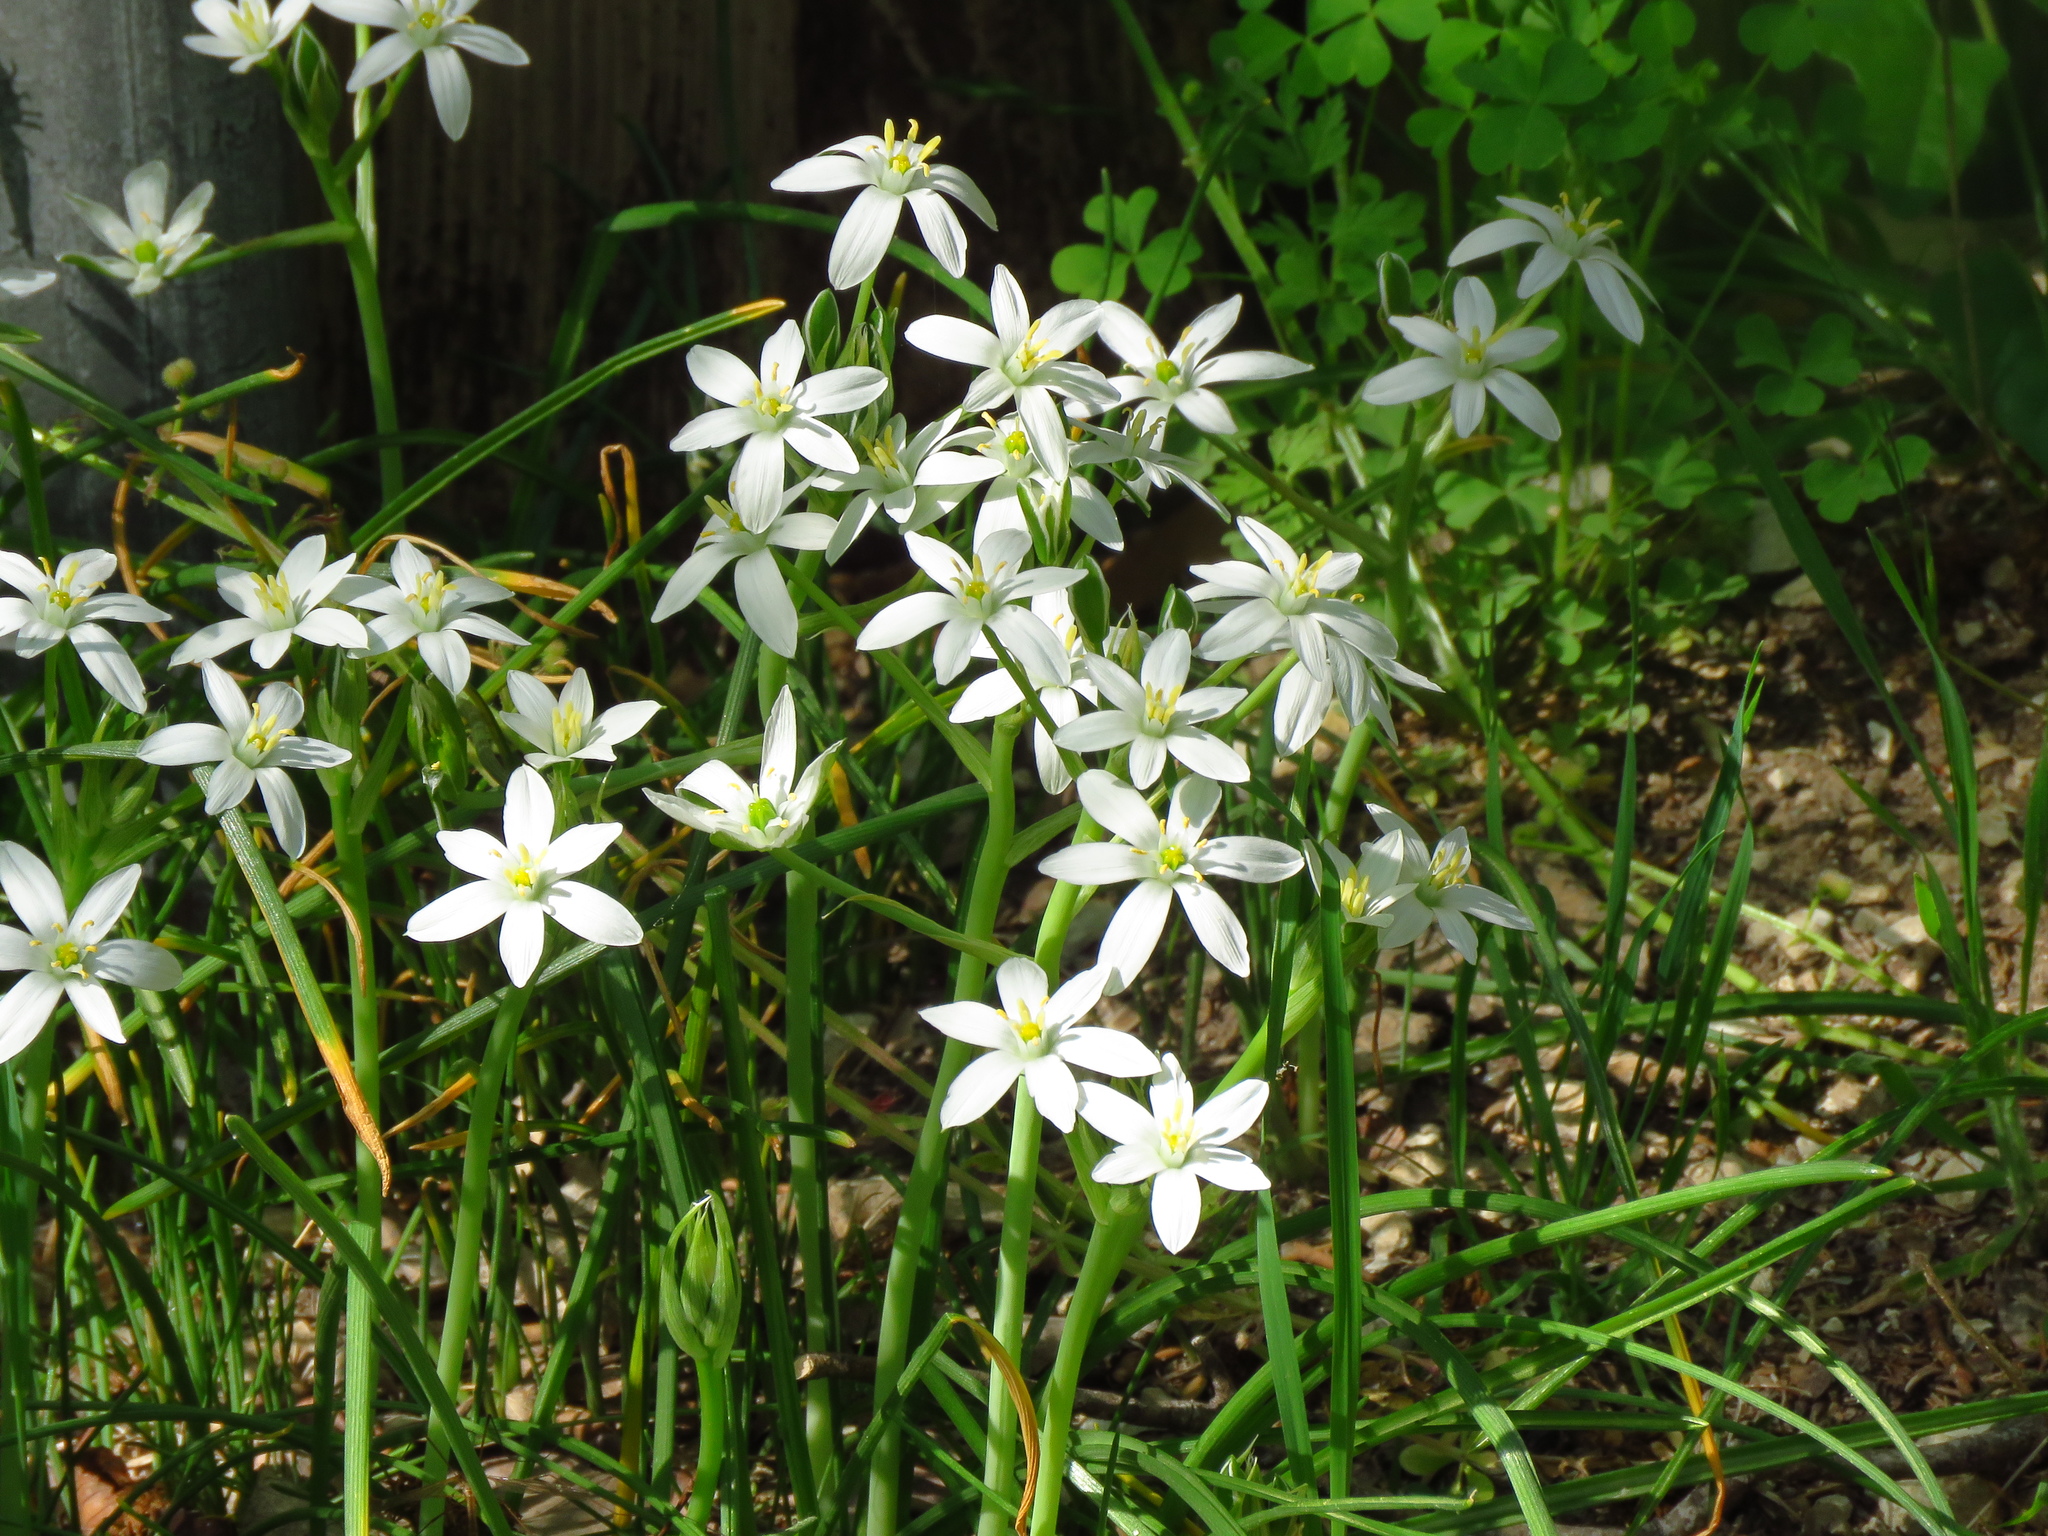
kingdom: Plantae
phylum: Tracheophyta
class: Liliopsida
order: Asparagales
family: Asparagaceae
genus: Ornithogalum
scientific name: Ornithogalum umbellatum
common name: Garden star-of-bethlehem
